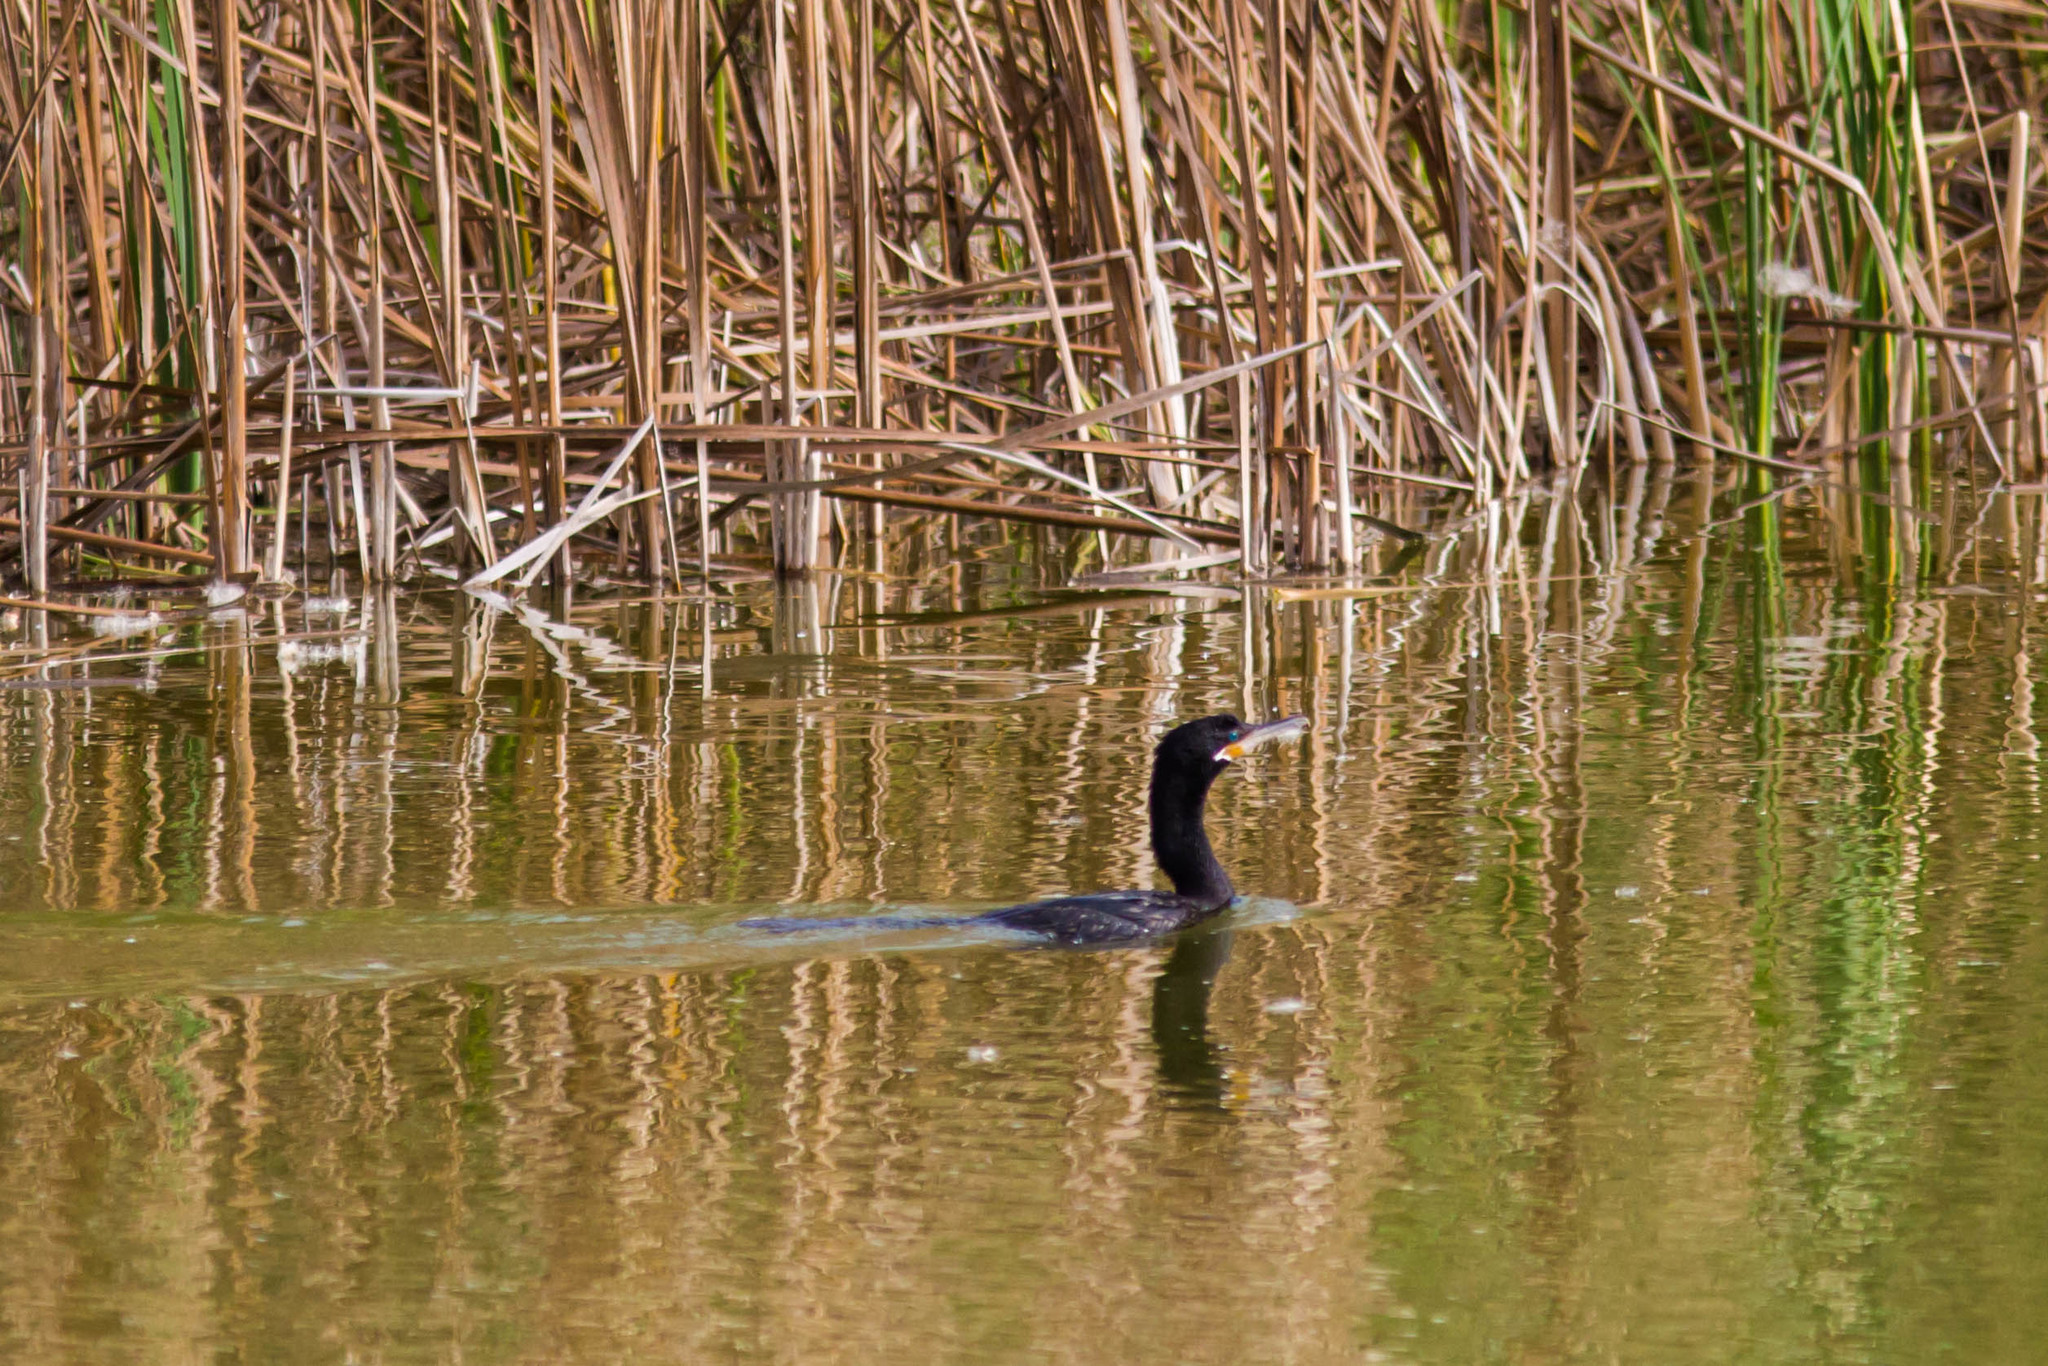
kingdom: Animalia
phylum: Chordata
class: Aves
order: Suliformes
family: Phalacrocoracidae
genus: Phalacrocorax
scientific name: Phalacrocorax brasilianus
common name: Neotropic cormorant
